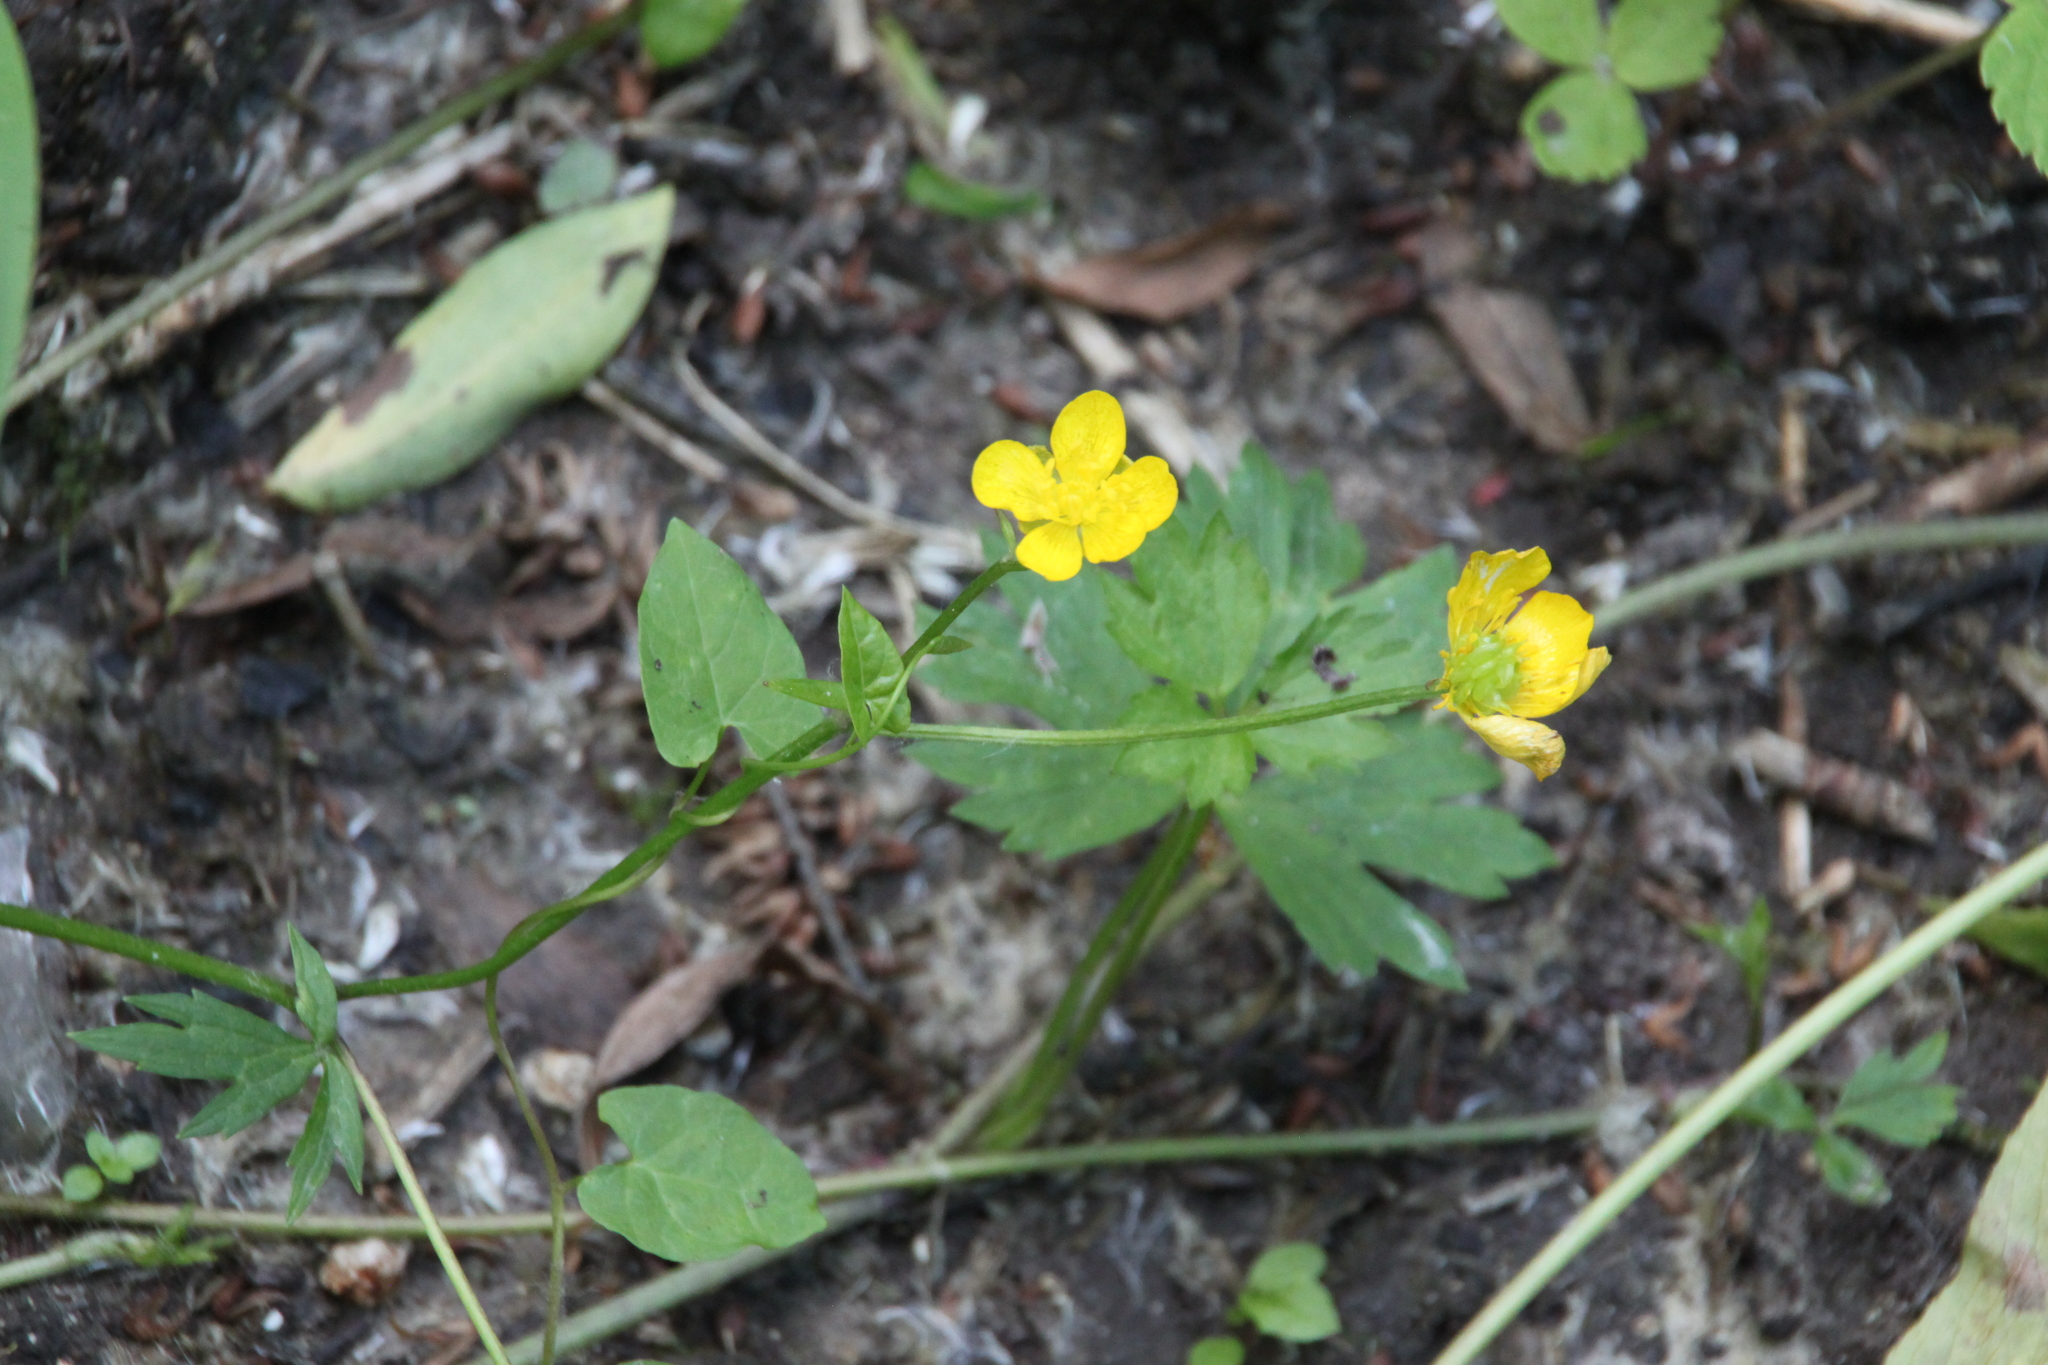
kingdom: Plantae
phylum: Tracheophyta
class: Magnoliopsida
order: Ranunculales
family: Ranunculaceae
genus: Ranunculus
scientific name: Ranunculus repens
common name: Creeping buttercup
